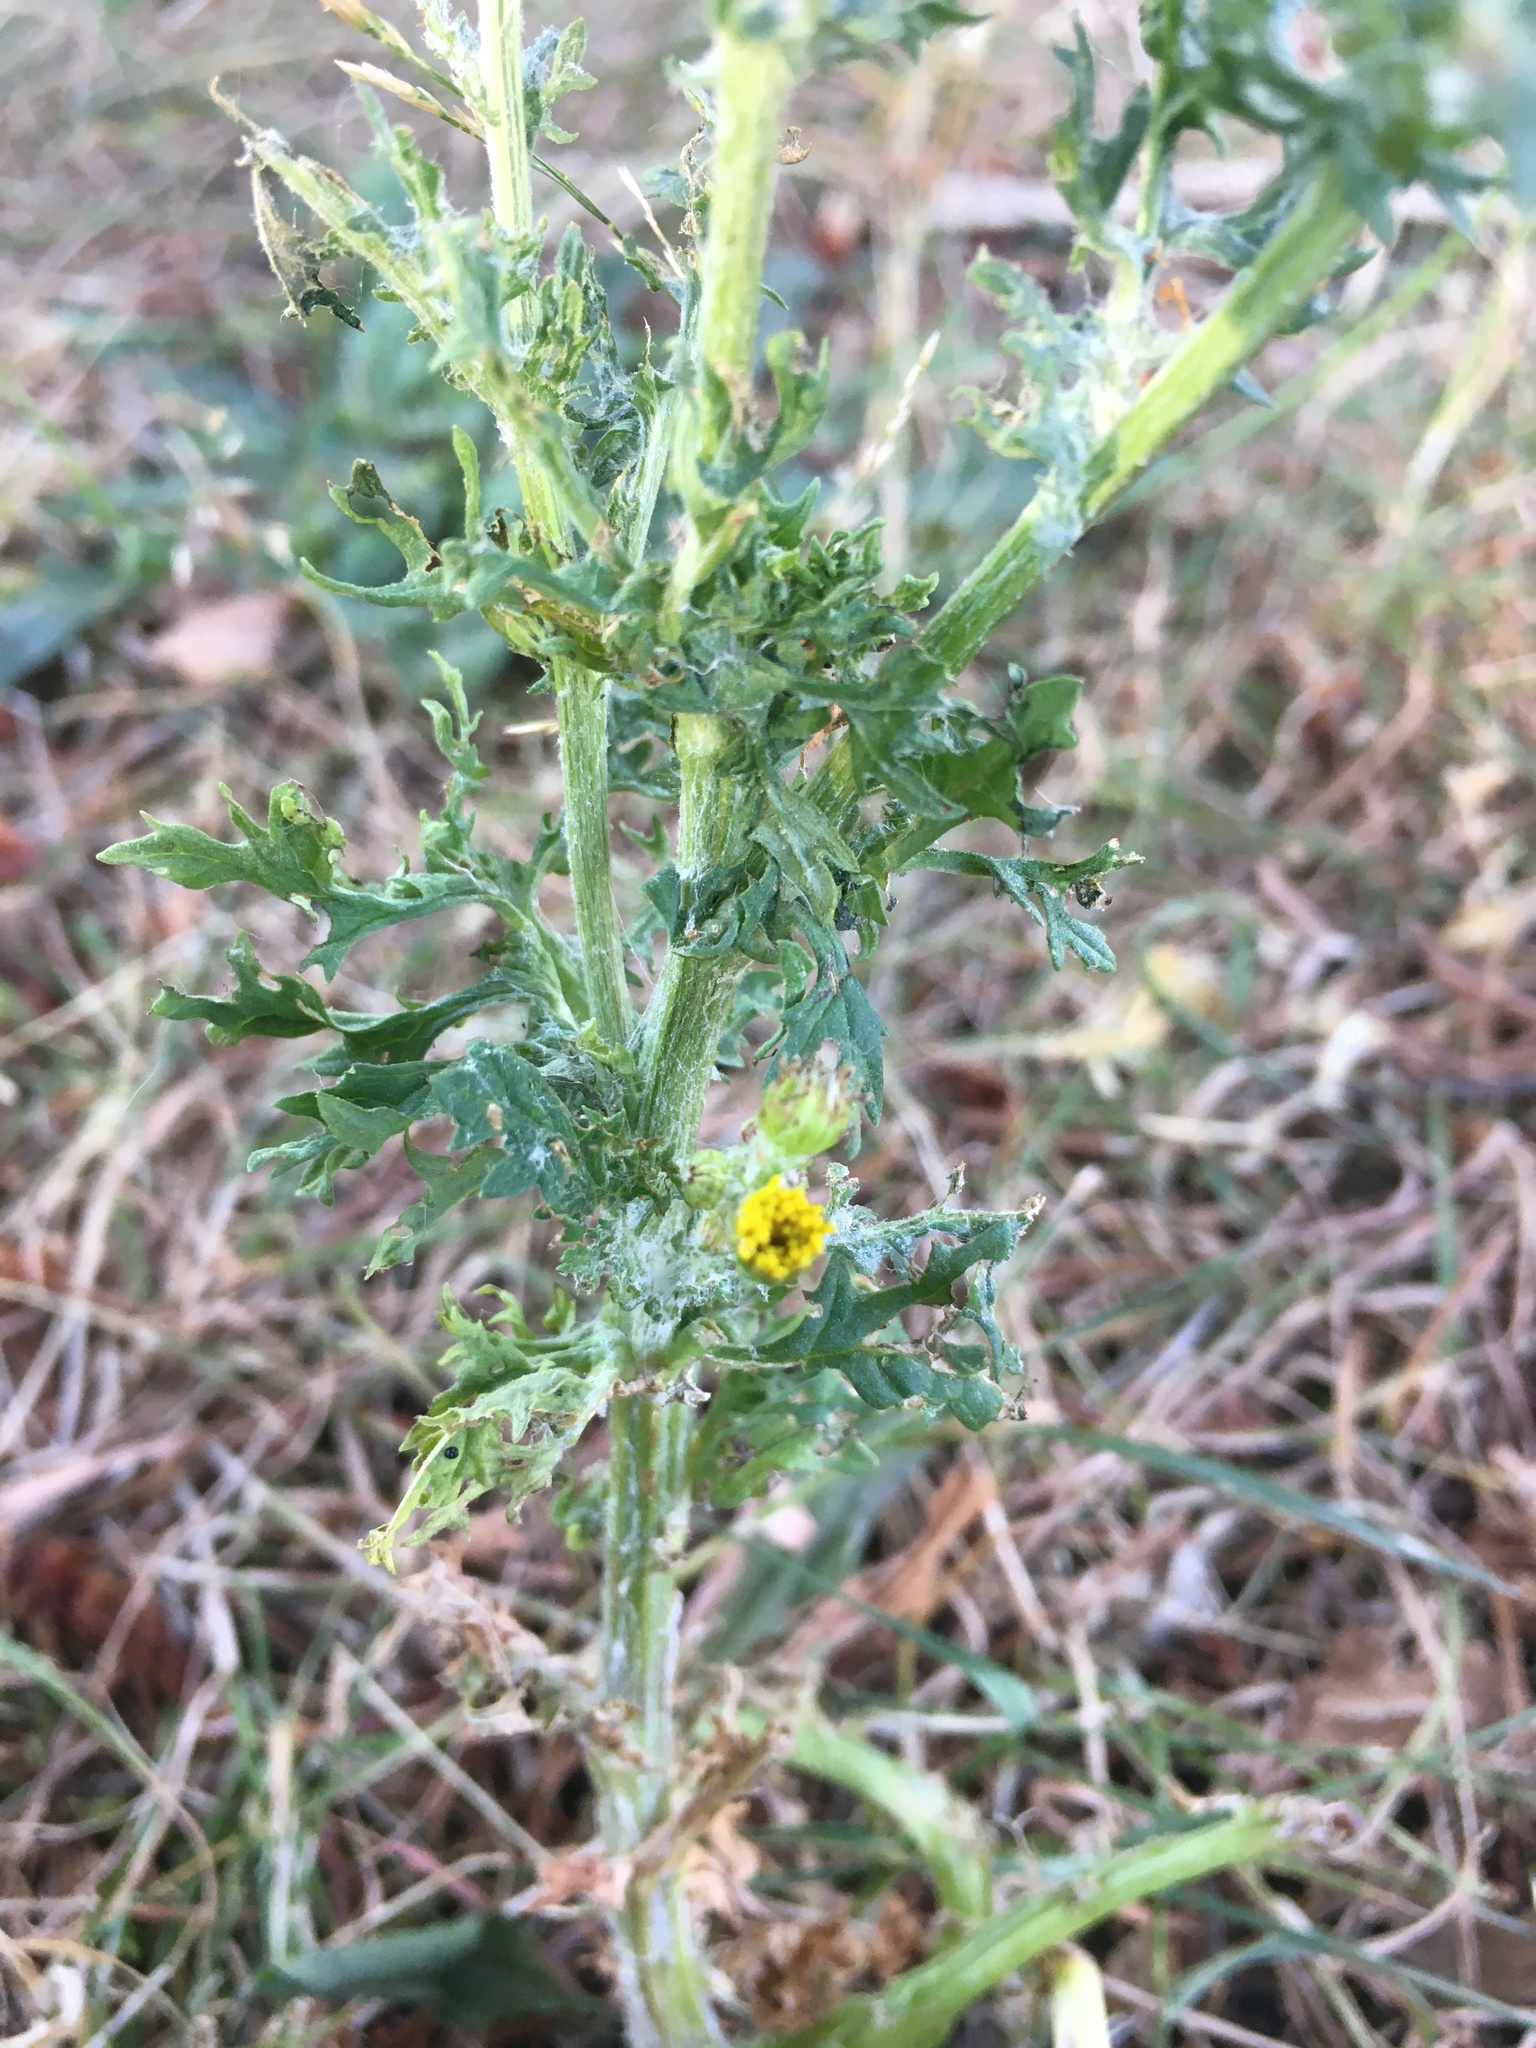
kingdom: Plantae
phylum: Tracheophyta
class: Magnoliopsida
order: Asterales
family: Asteraceae
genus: Jacobaea
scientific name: Jacobaea vulgaris
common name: Stinking willie
